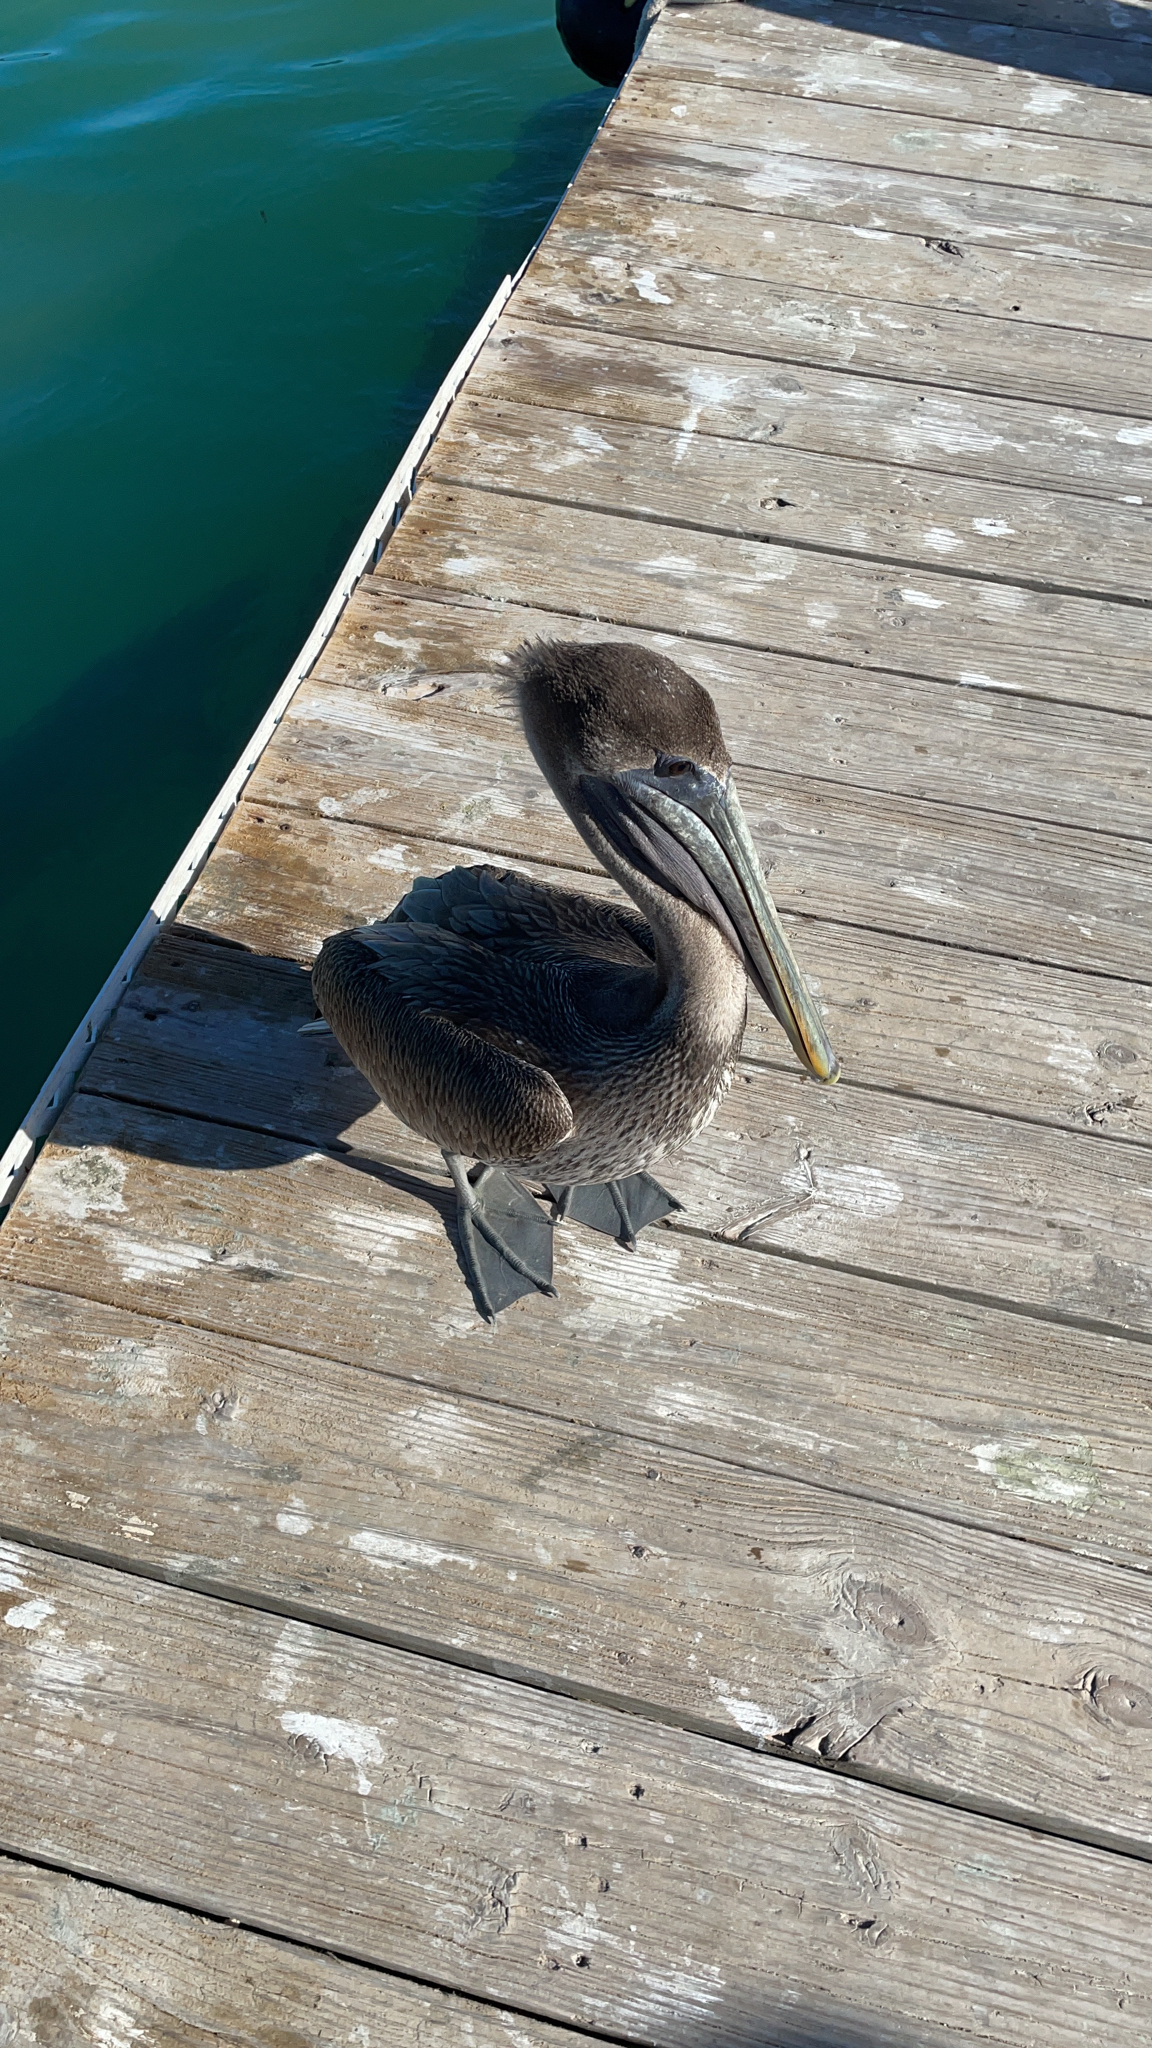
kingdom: Animalia
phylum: Chordata
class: Aves
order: Pelecaniformes
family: Pelecanidae
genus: Pelecanus
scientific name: Pelecanus occidentalis
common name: Brown pelican
